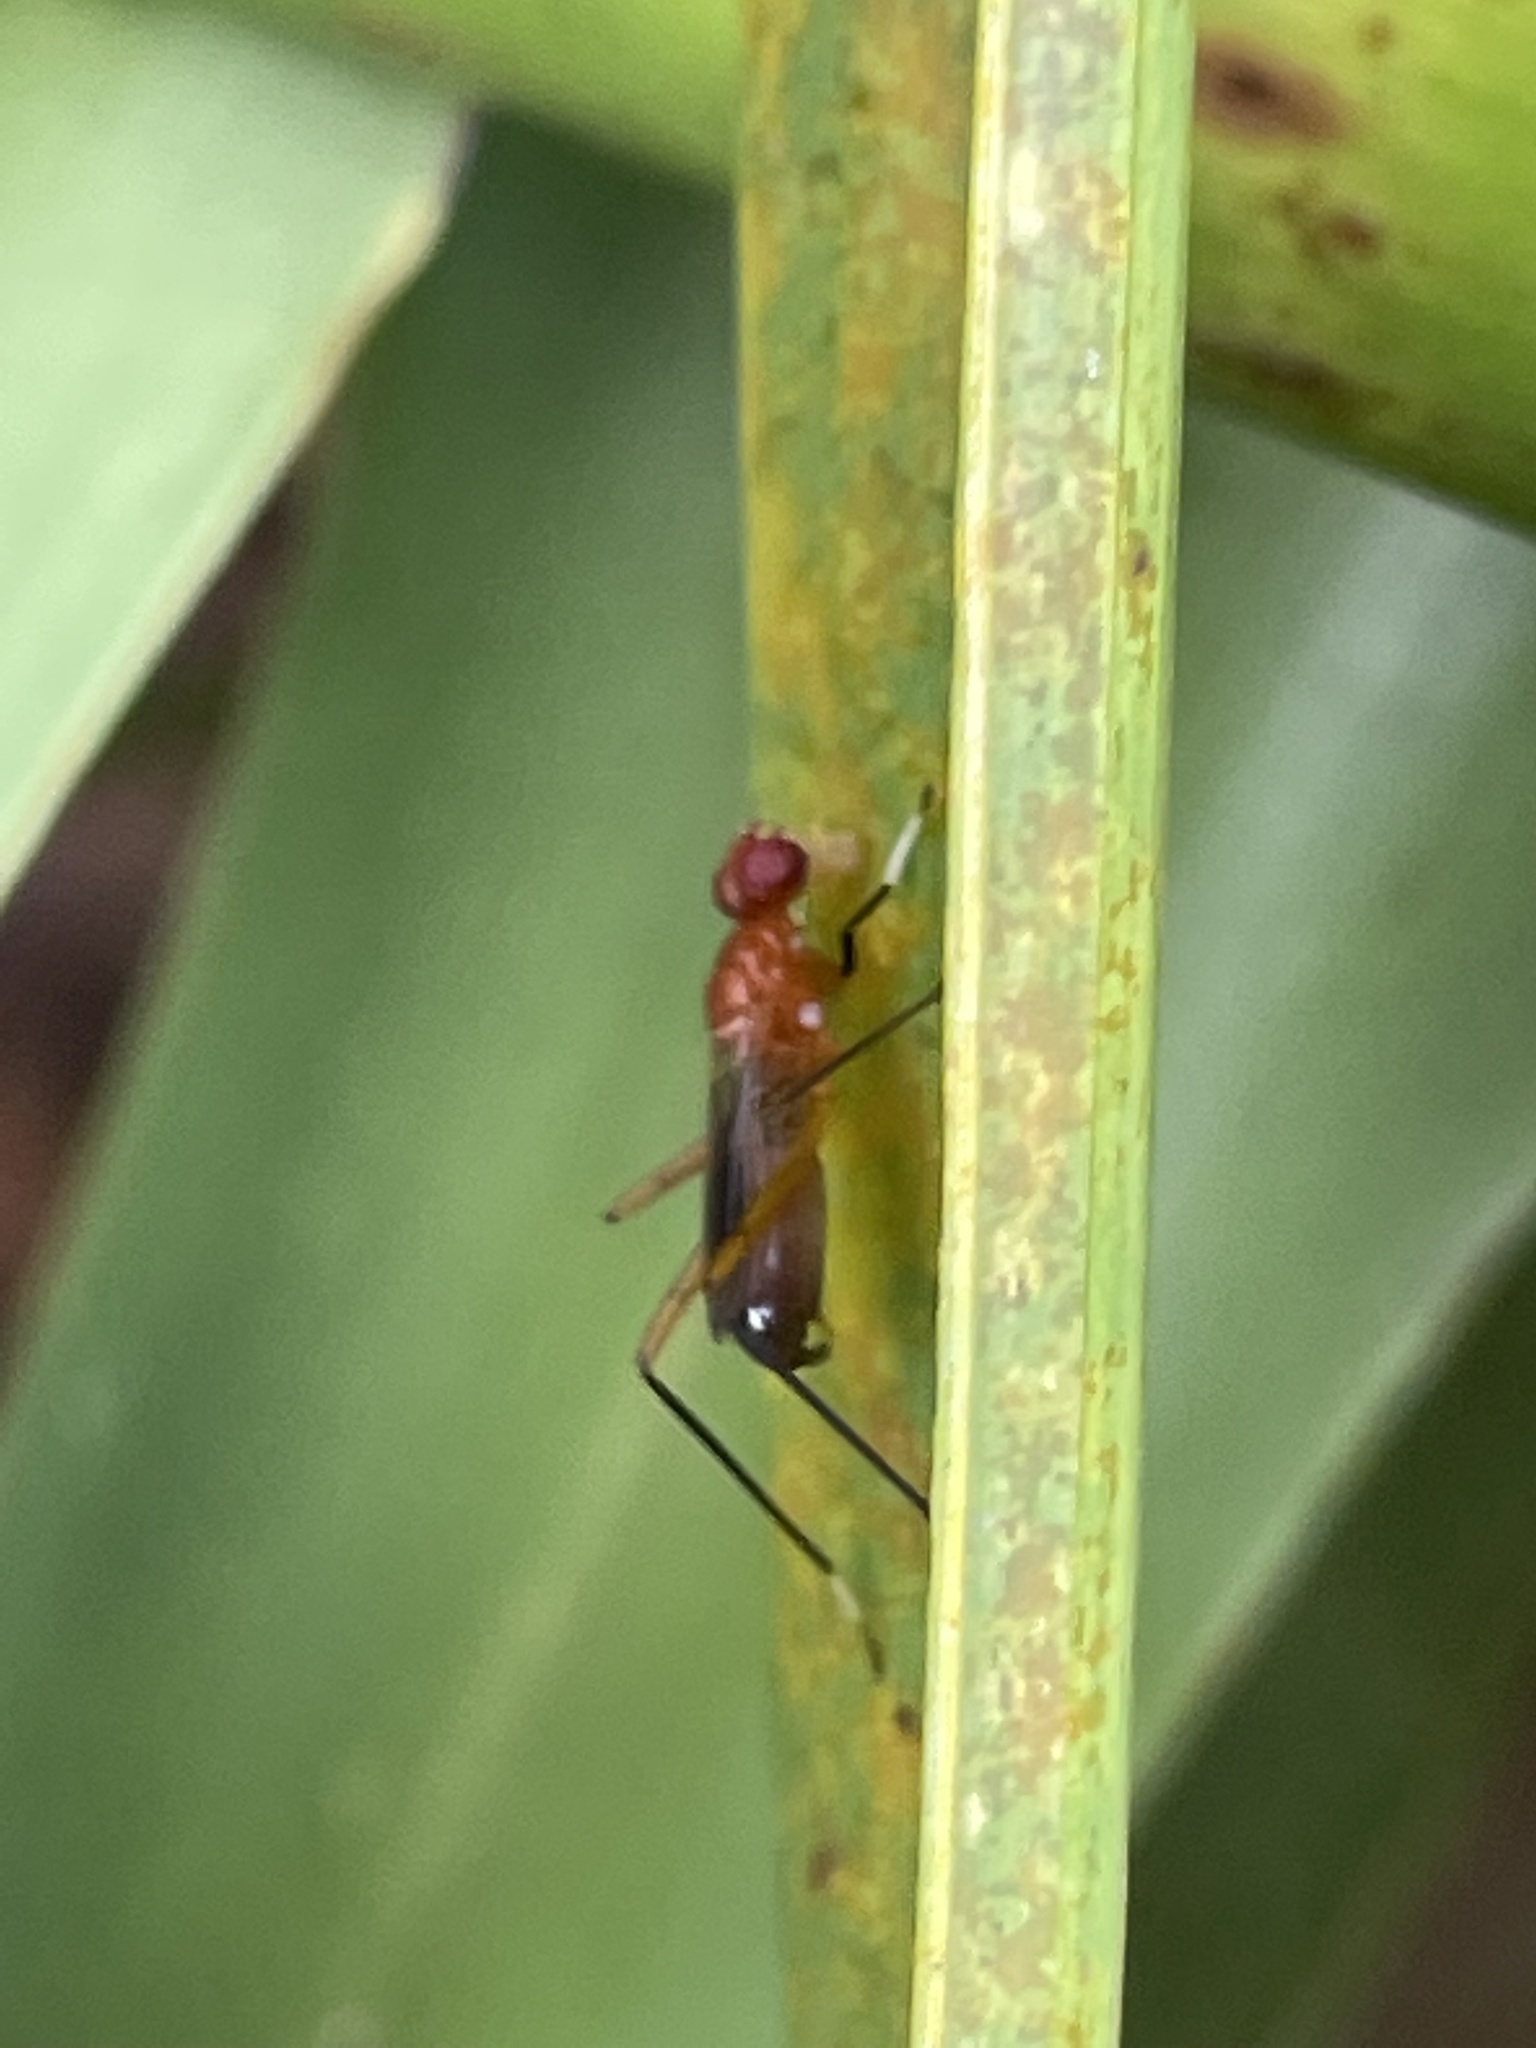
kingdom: Animalia
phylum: Arthropoda
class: Insecta
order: Diptera
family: Micropezidae
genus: Grallipeza
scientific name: Grallipeza nebulosa
